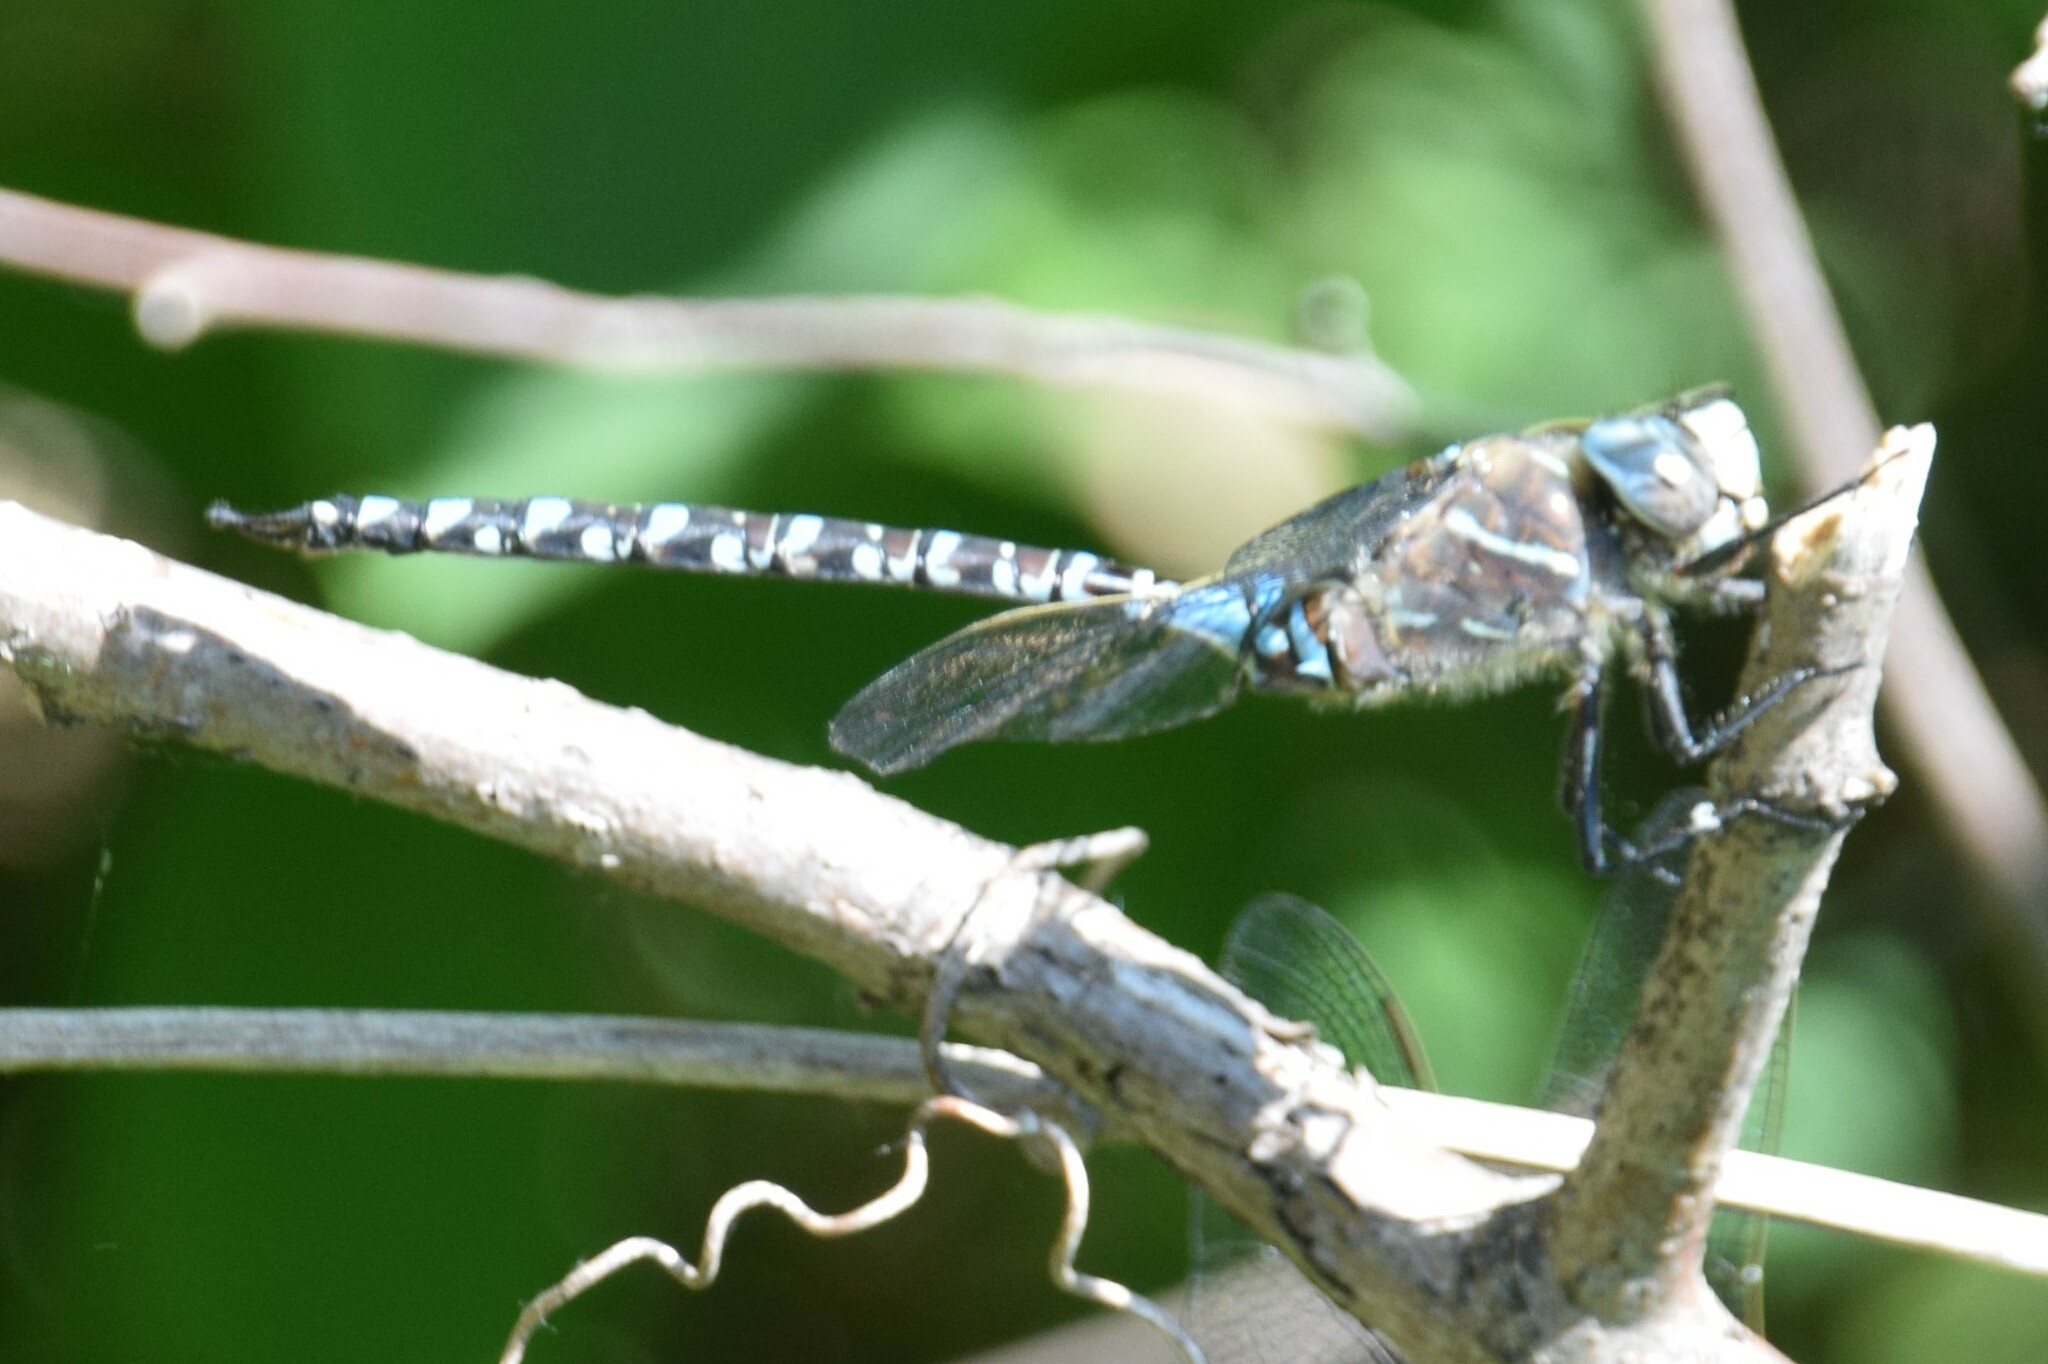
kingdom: Animalia
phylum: Arthropoda
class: Insecta
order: Odonata
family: Aeshnidae
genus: Aeshna
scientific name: Aeshna interrupta
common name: Variable darner
